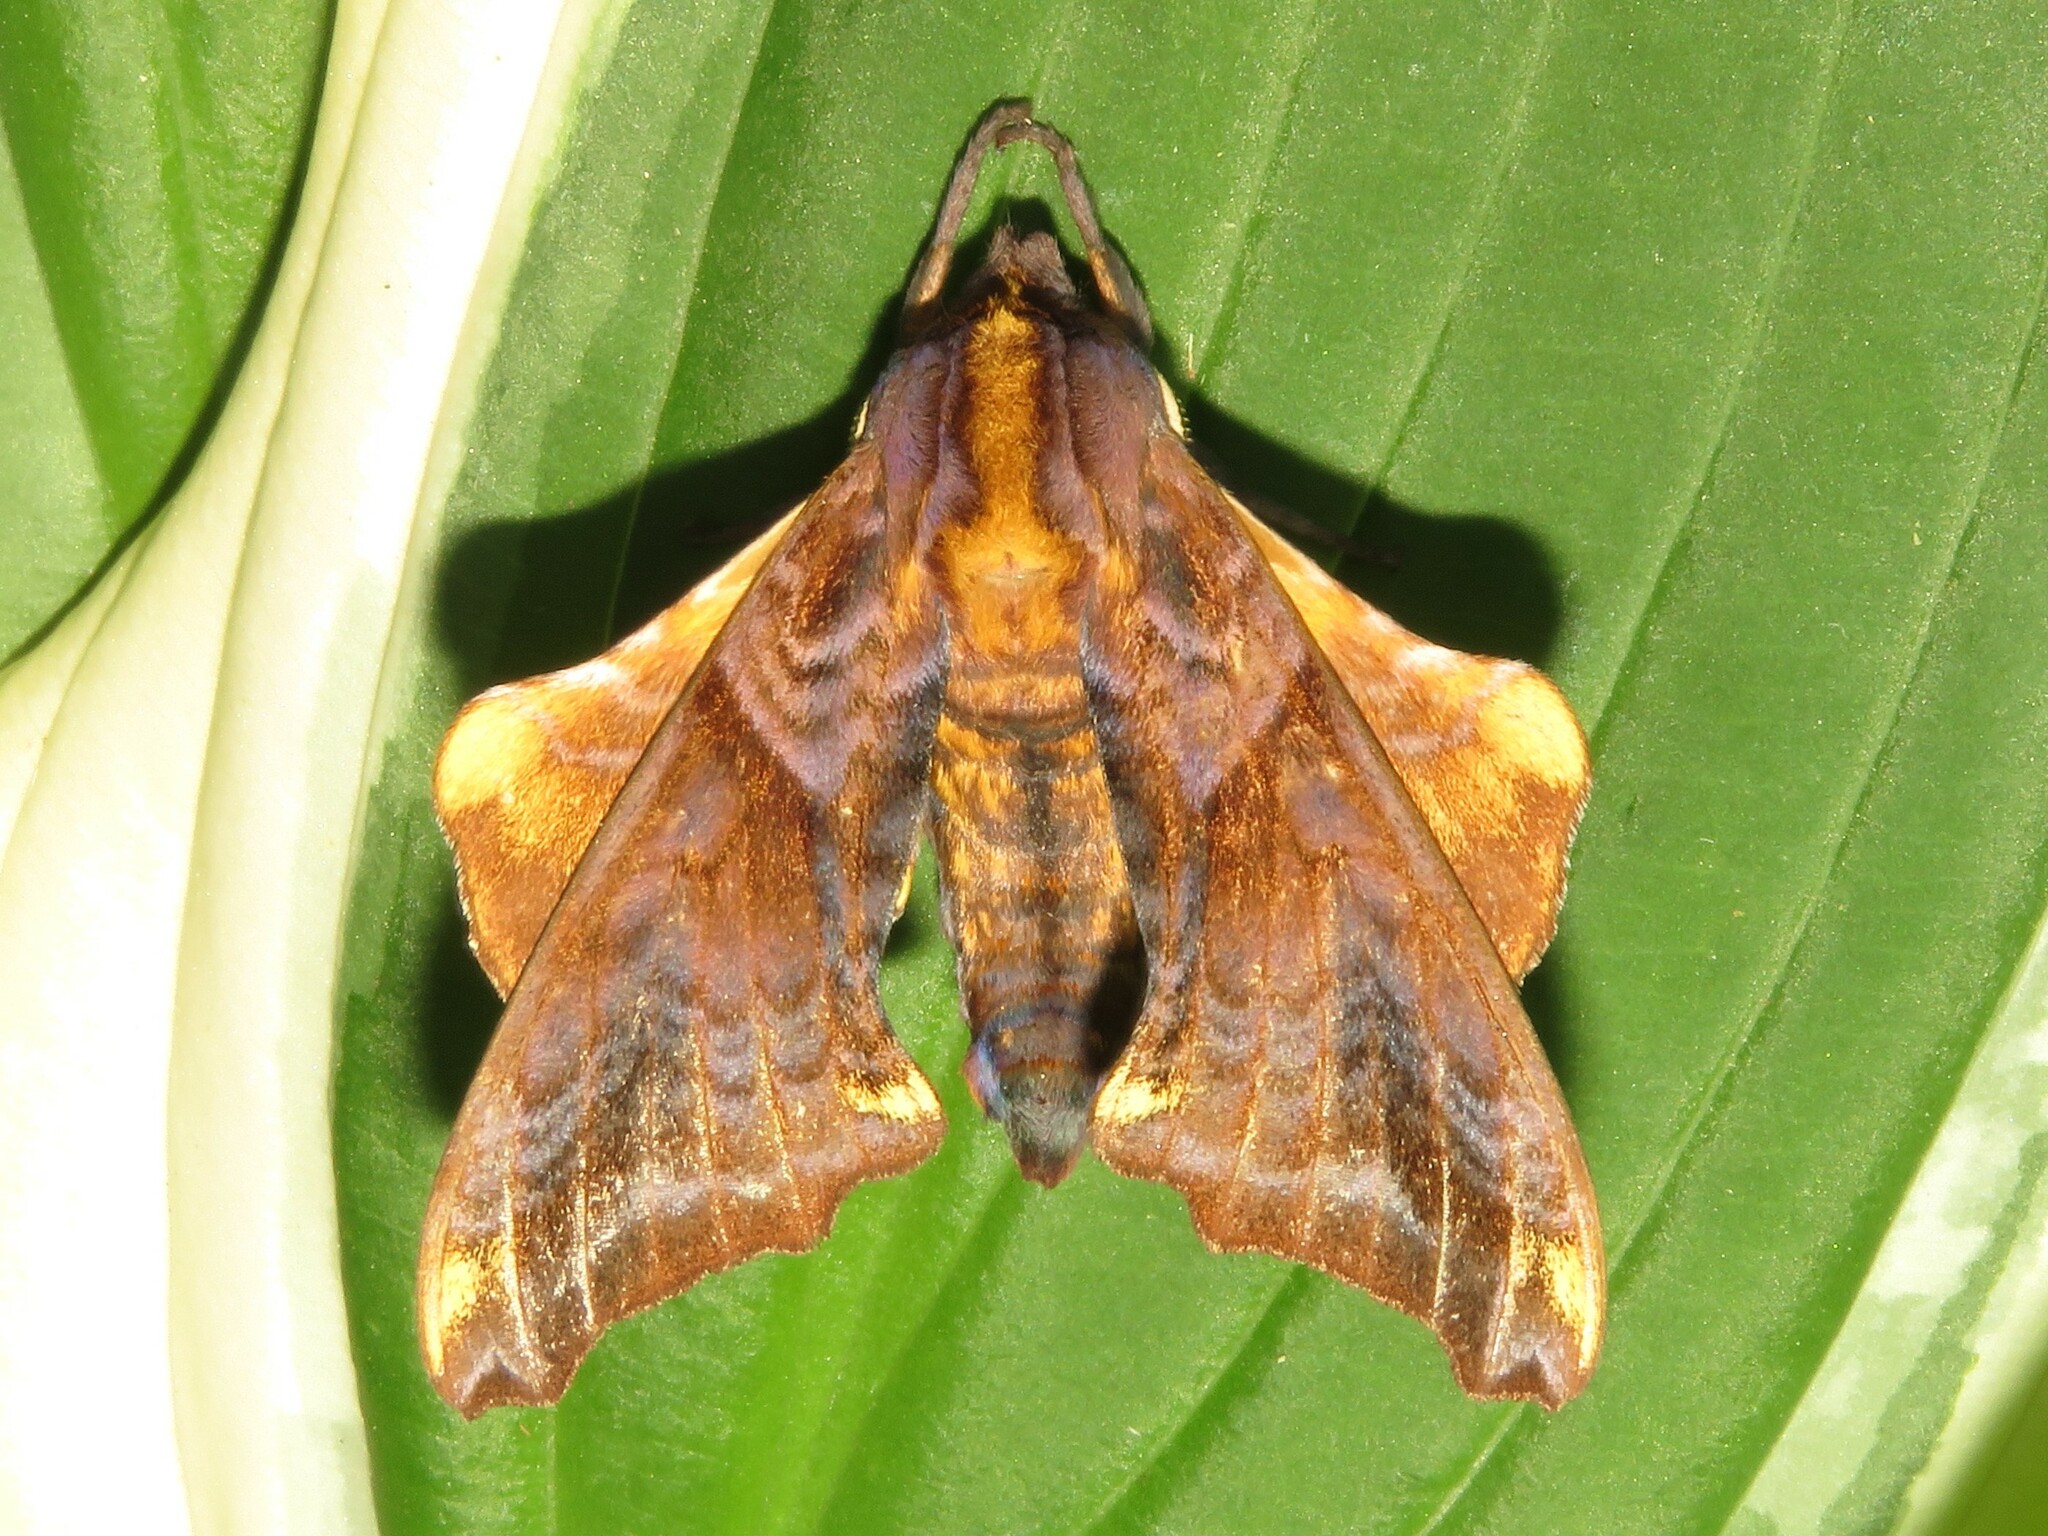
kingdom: Animalia
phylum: Arthropoda
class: Insecta
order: Lepidoptera
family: Sphingidae
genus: Paonias
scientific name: Paonias myops
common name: Small-eyed sphinx
